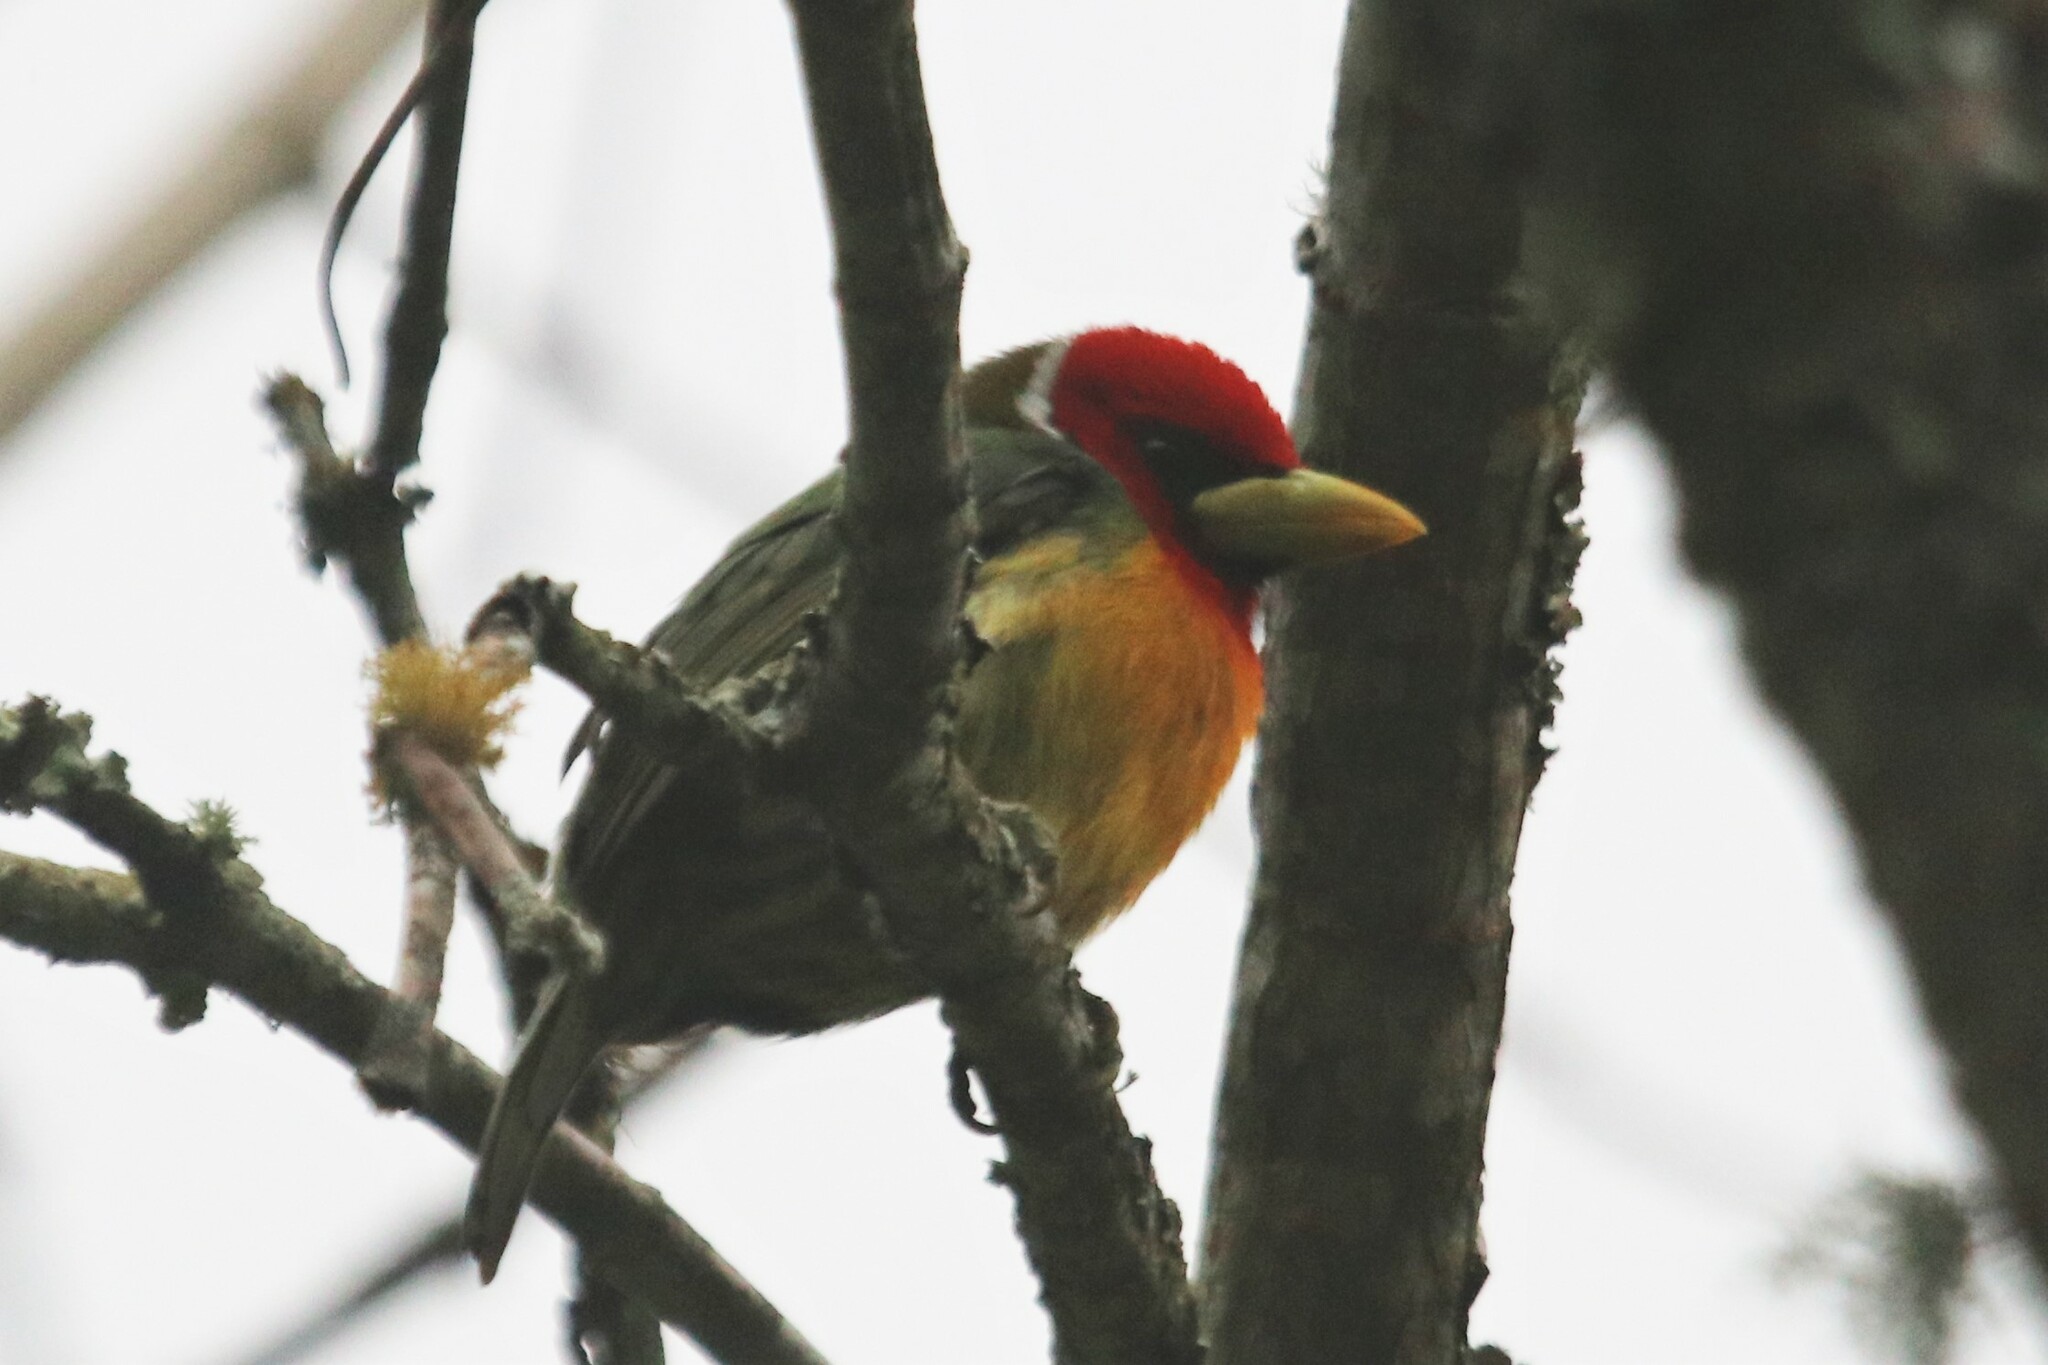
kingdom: Animalia
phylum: Chordata
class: Aves
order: Piciformes
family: Capitonidae
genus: Eubucco
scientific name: Eubucco bourcierii
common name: Red-headed barbet
